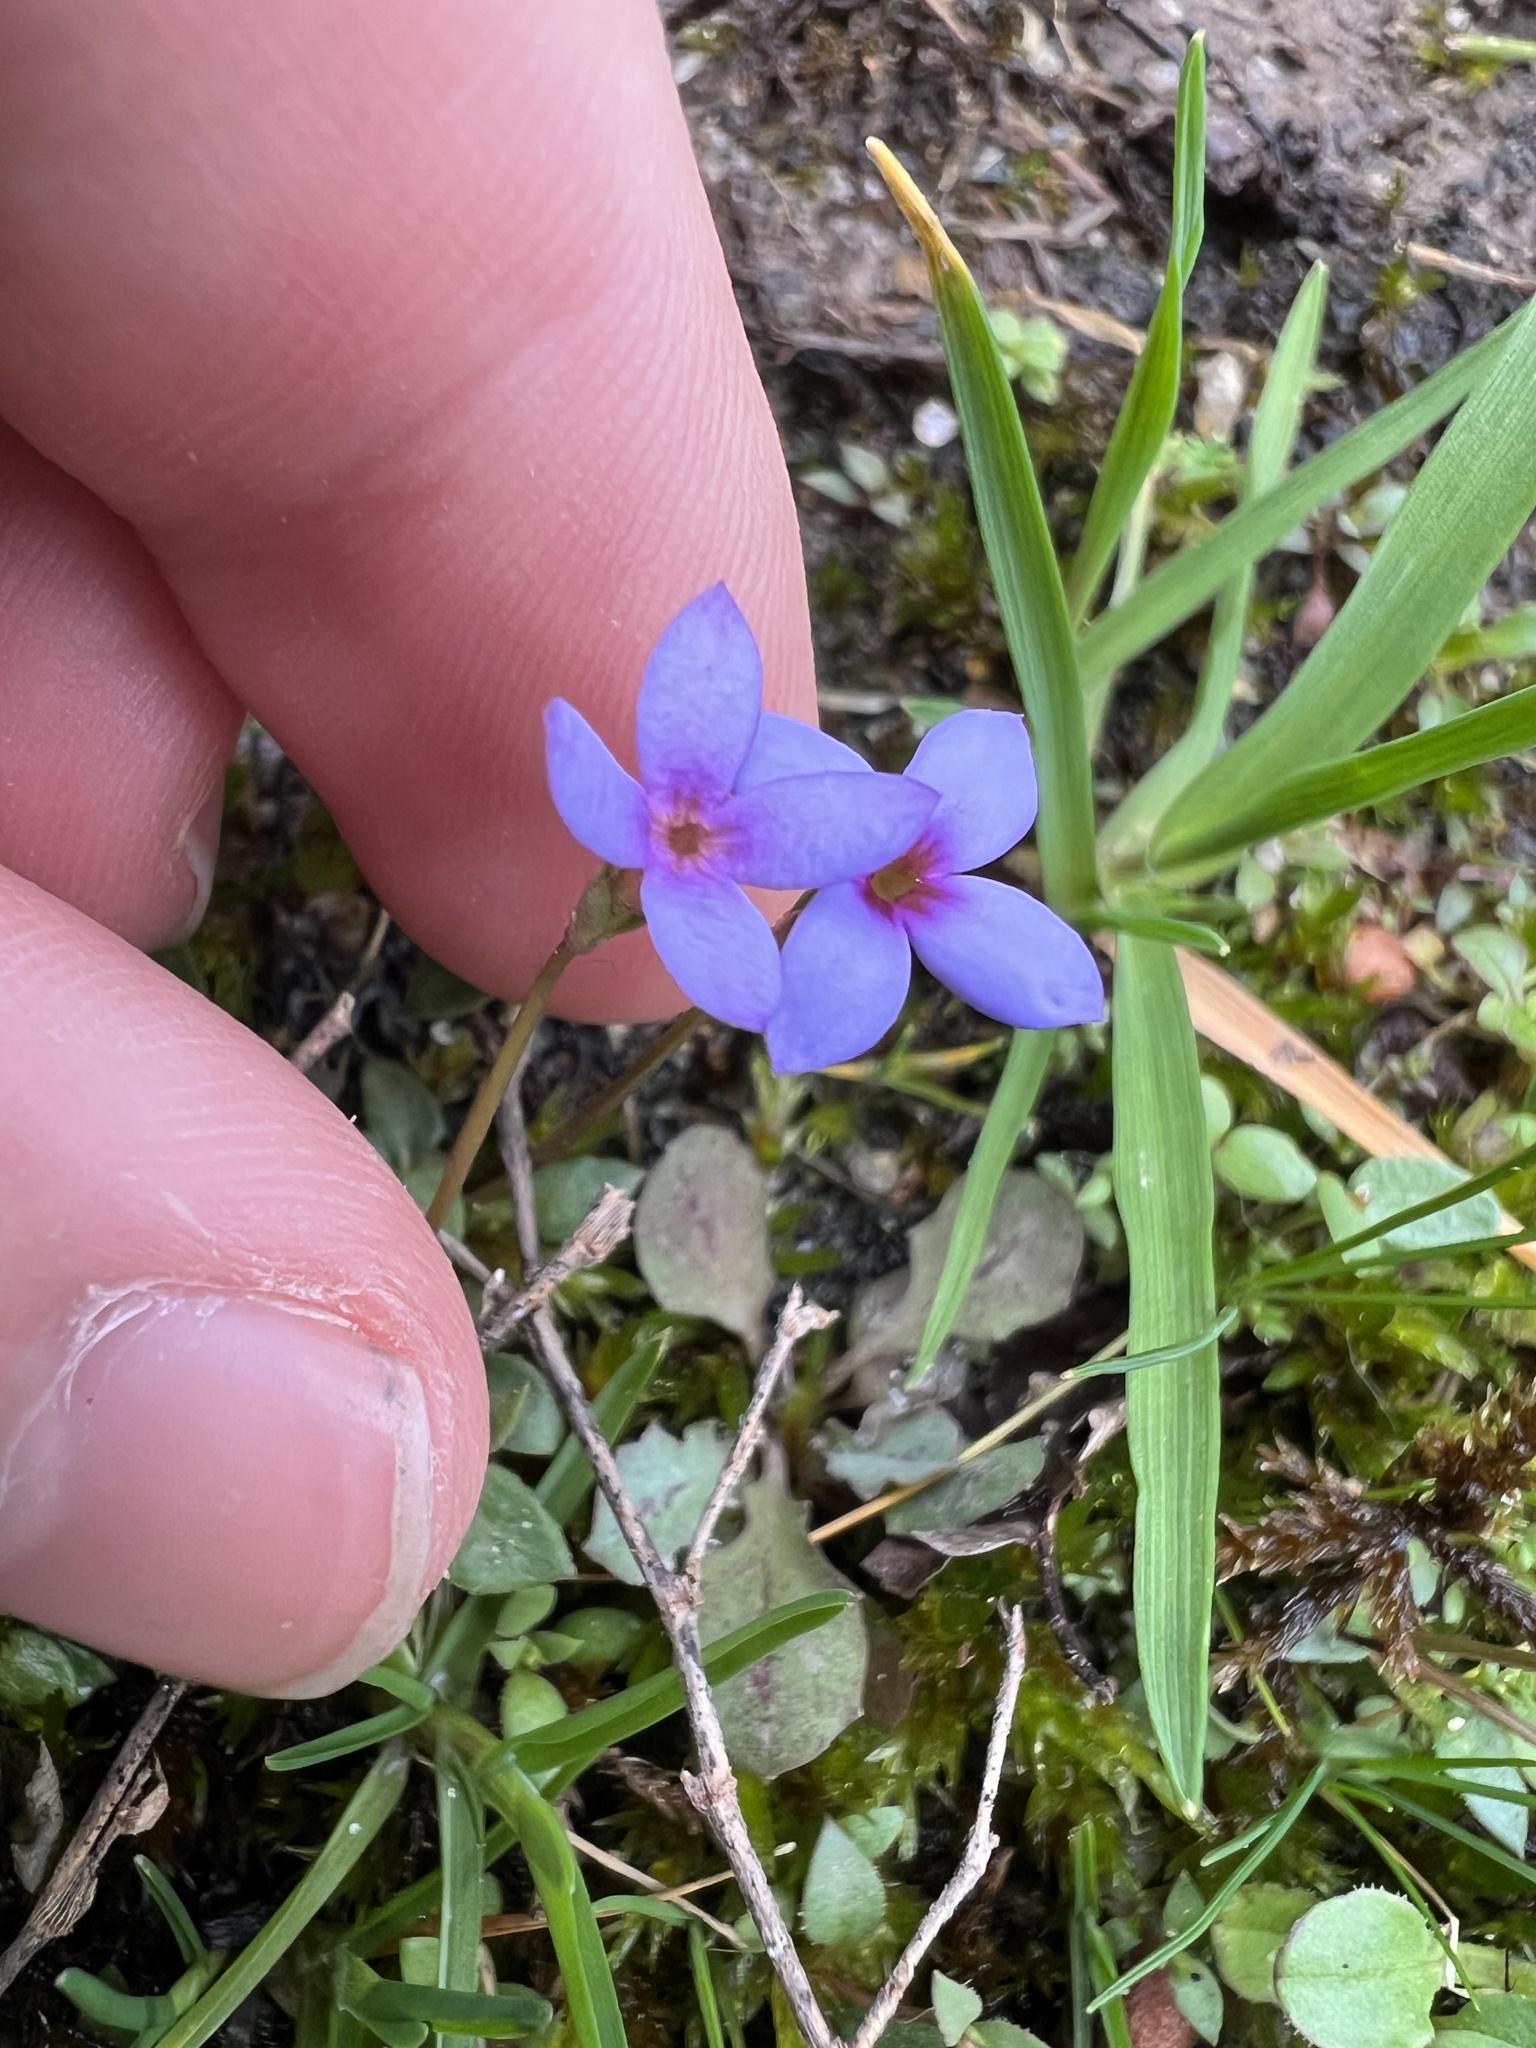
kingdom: Plantae
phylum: Tracheophyta
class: Magnoliopsida
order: Gentianales
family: Rubiaceae
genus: Houstonia
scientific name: Houstonia pusilla
